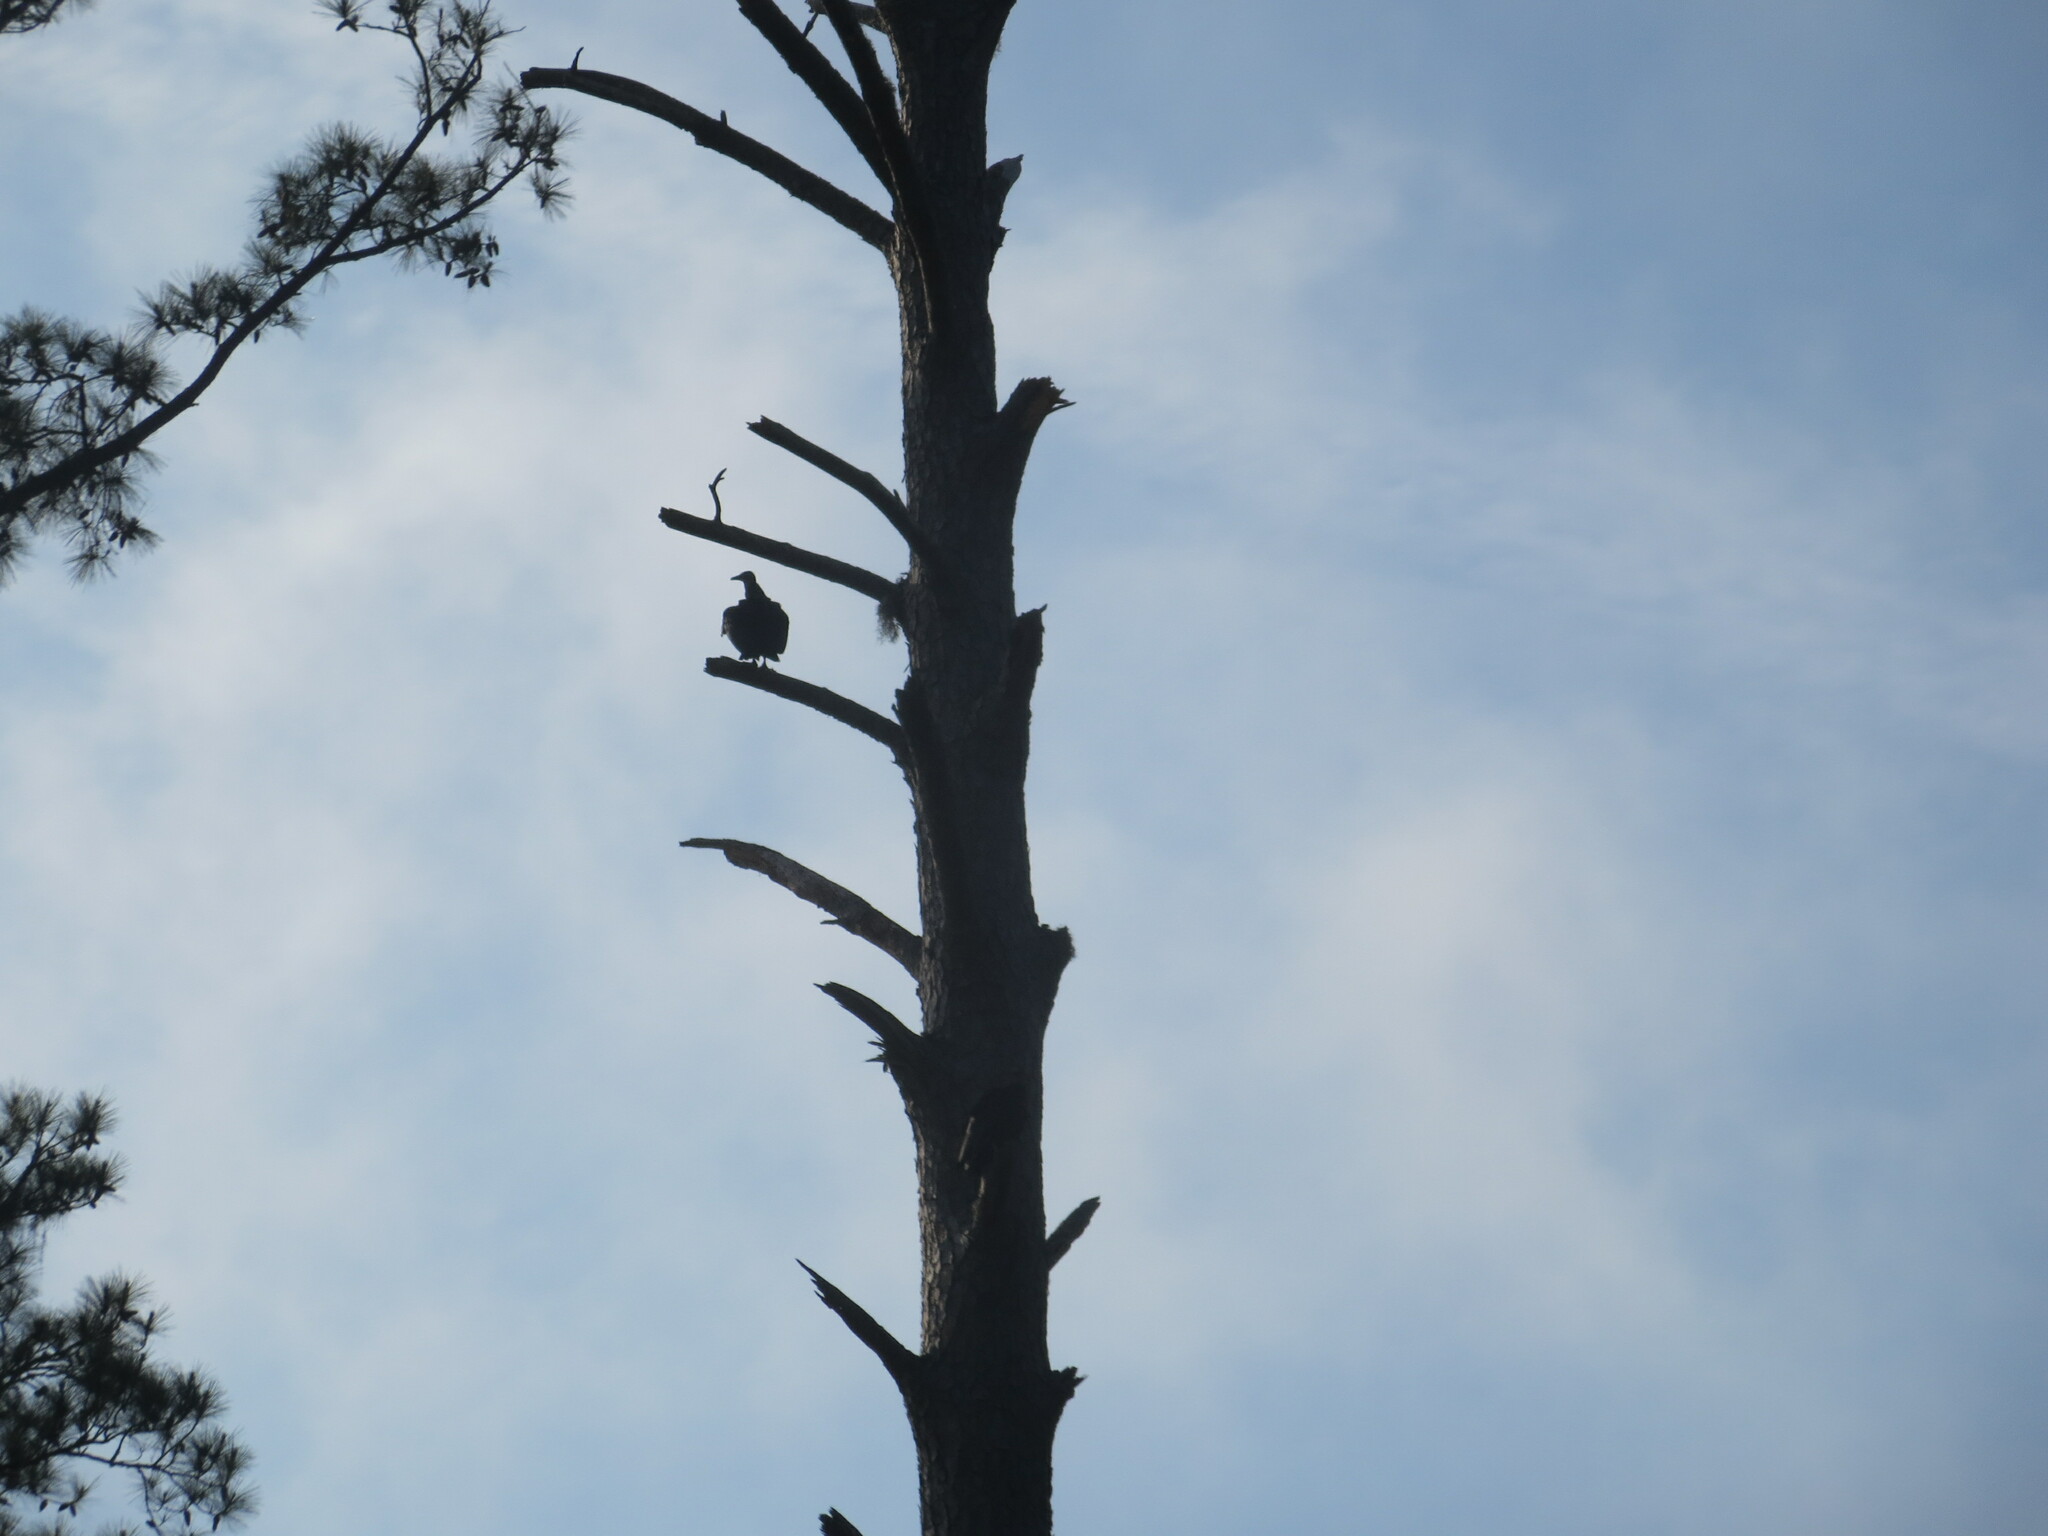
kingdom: Animalia
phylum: Chordata
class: Aves
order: Accipitriformes
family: Cathartidae
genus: Coragyps
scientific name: Coragyps atratus
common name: Black vulture
